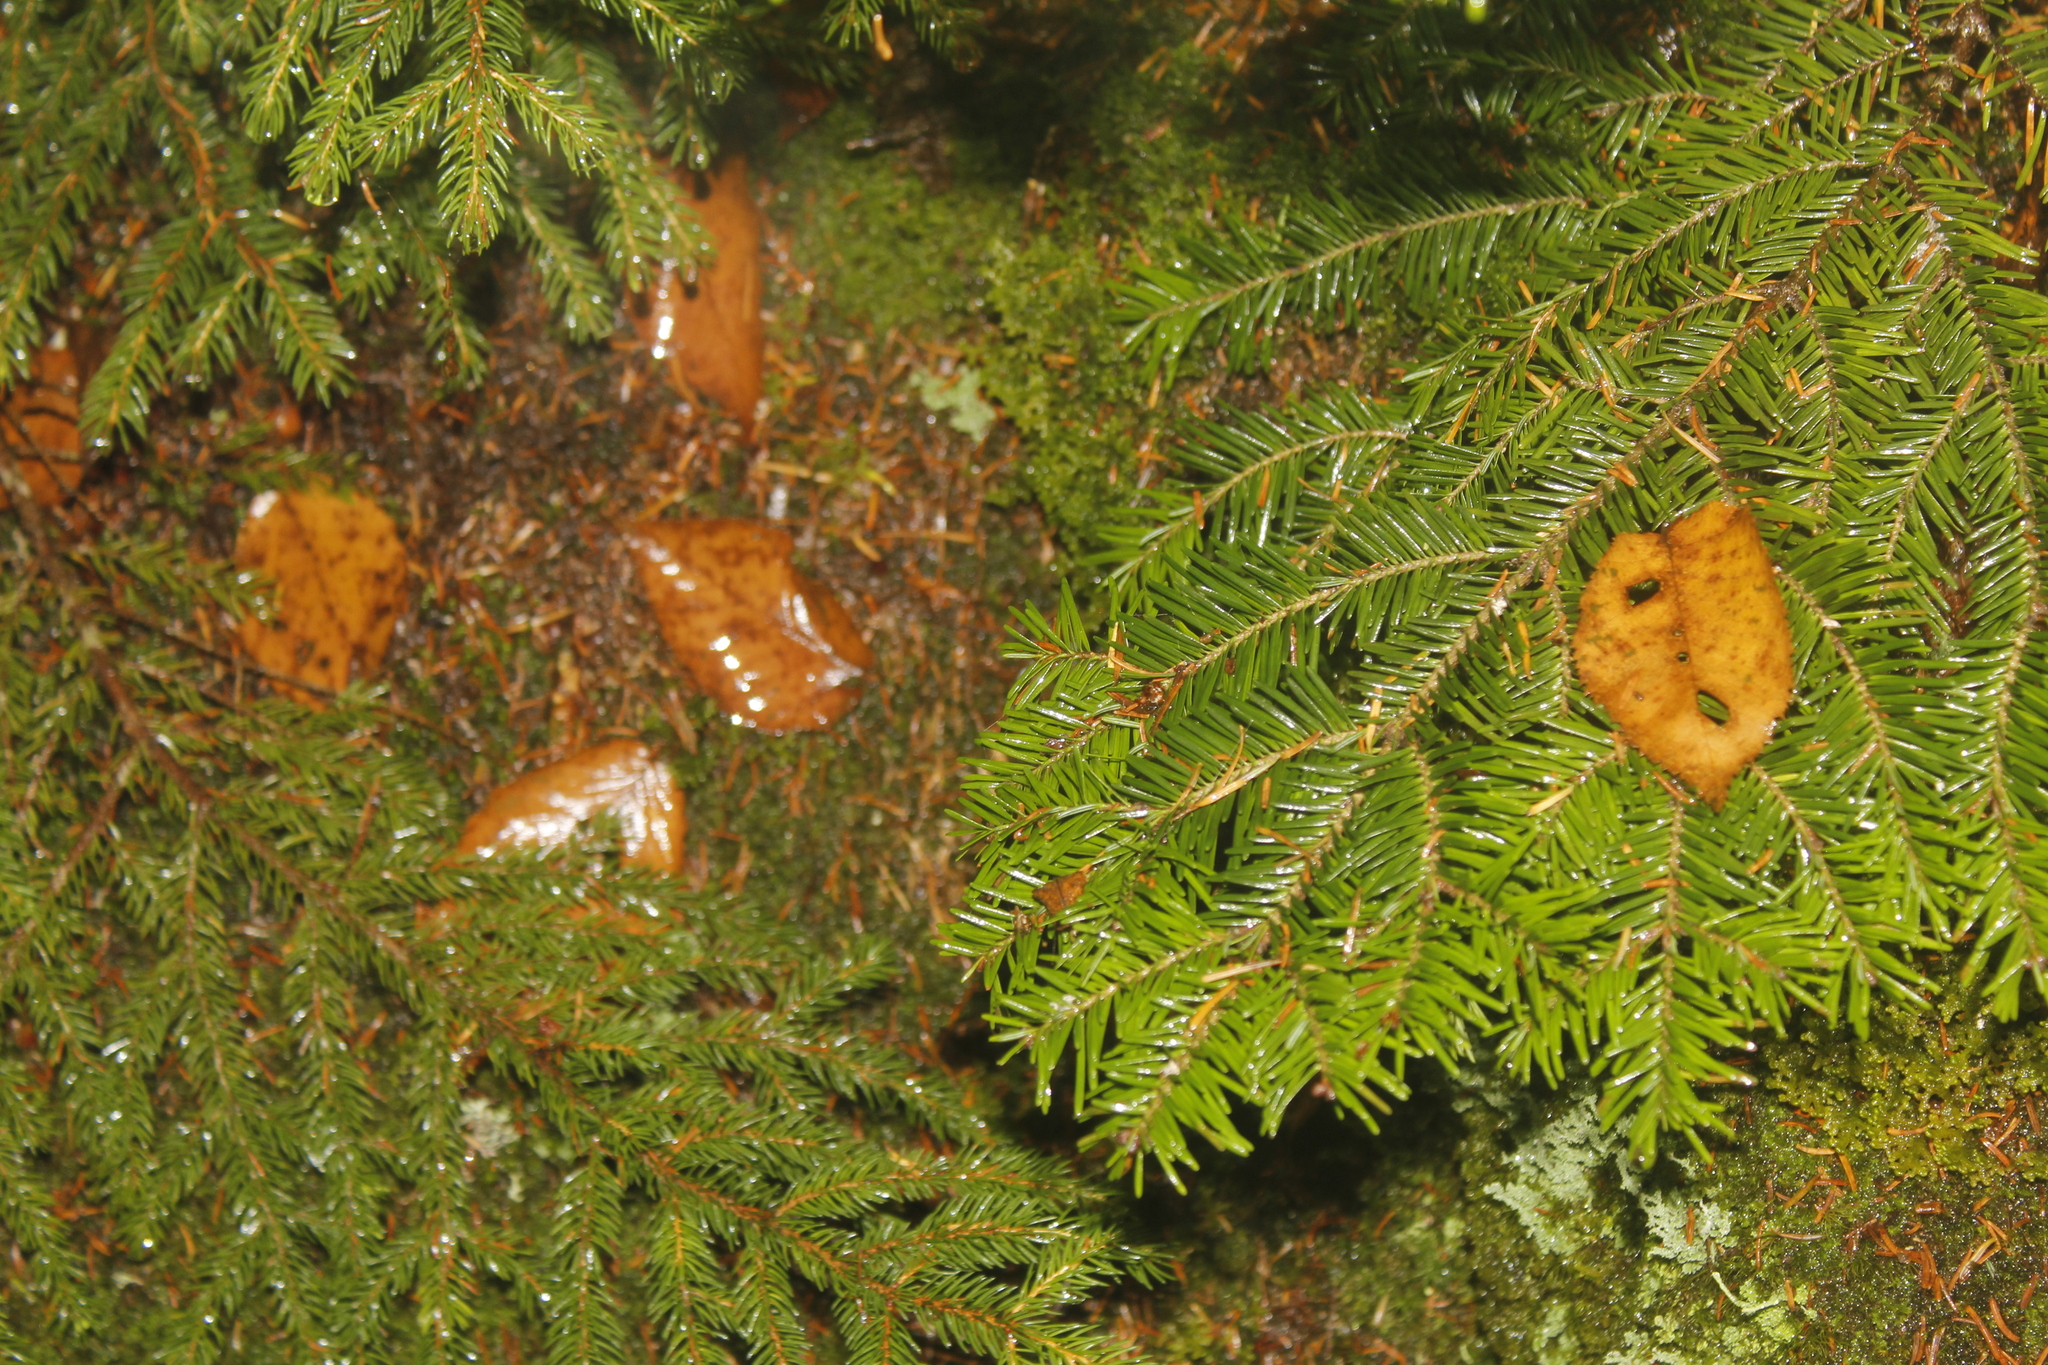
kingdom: Plantae
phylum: Tracheophyta
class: Pinopsida
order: Pinales
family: Pinaceae
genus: Abies
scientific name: Abies balsamea
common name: Balsam fir
